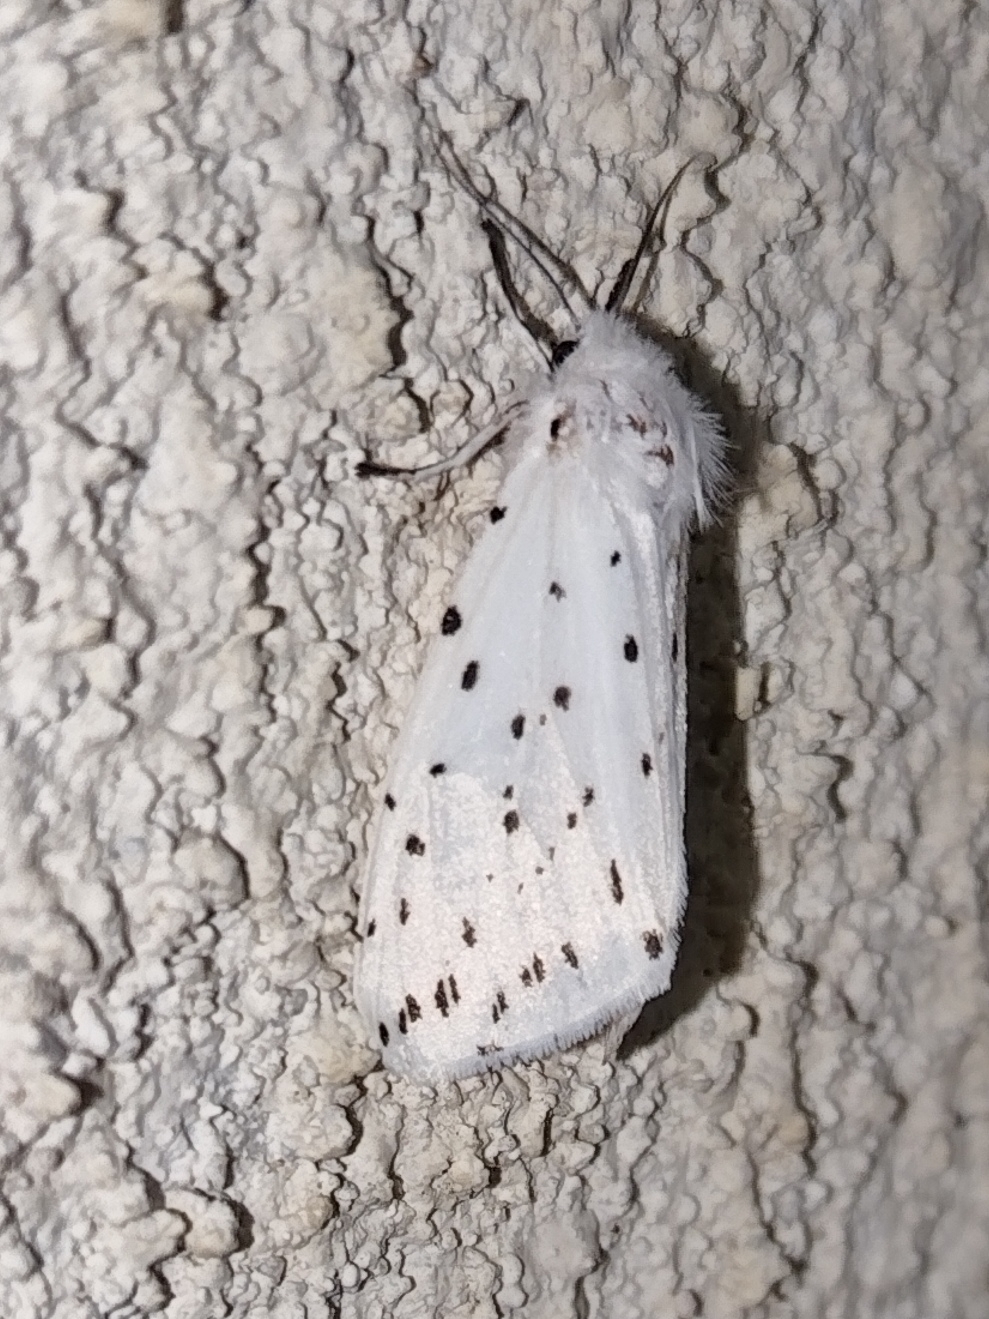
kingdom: Animalia
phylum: Arthropoda
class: Insecta
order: Lepidoptera
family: Erebidae
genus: Spilosoma
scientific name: Spilosoma lubricipeda
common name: White ermine
